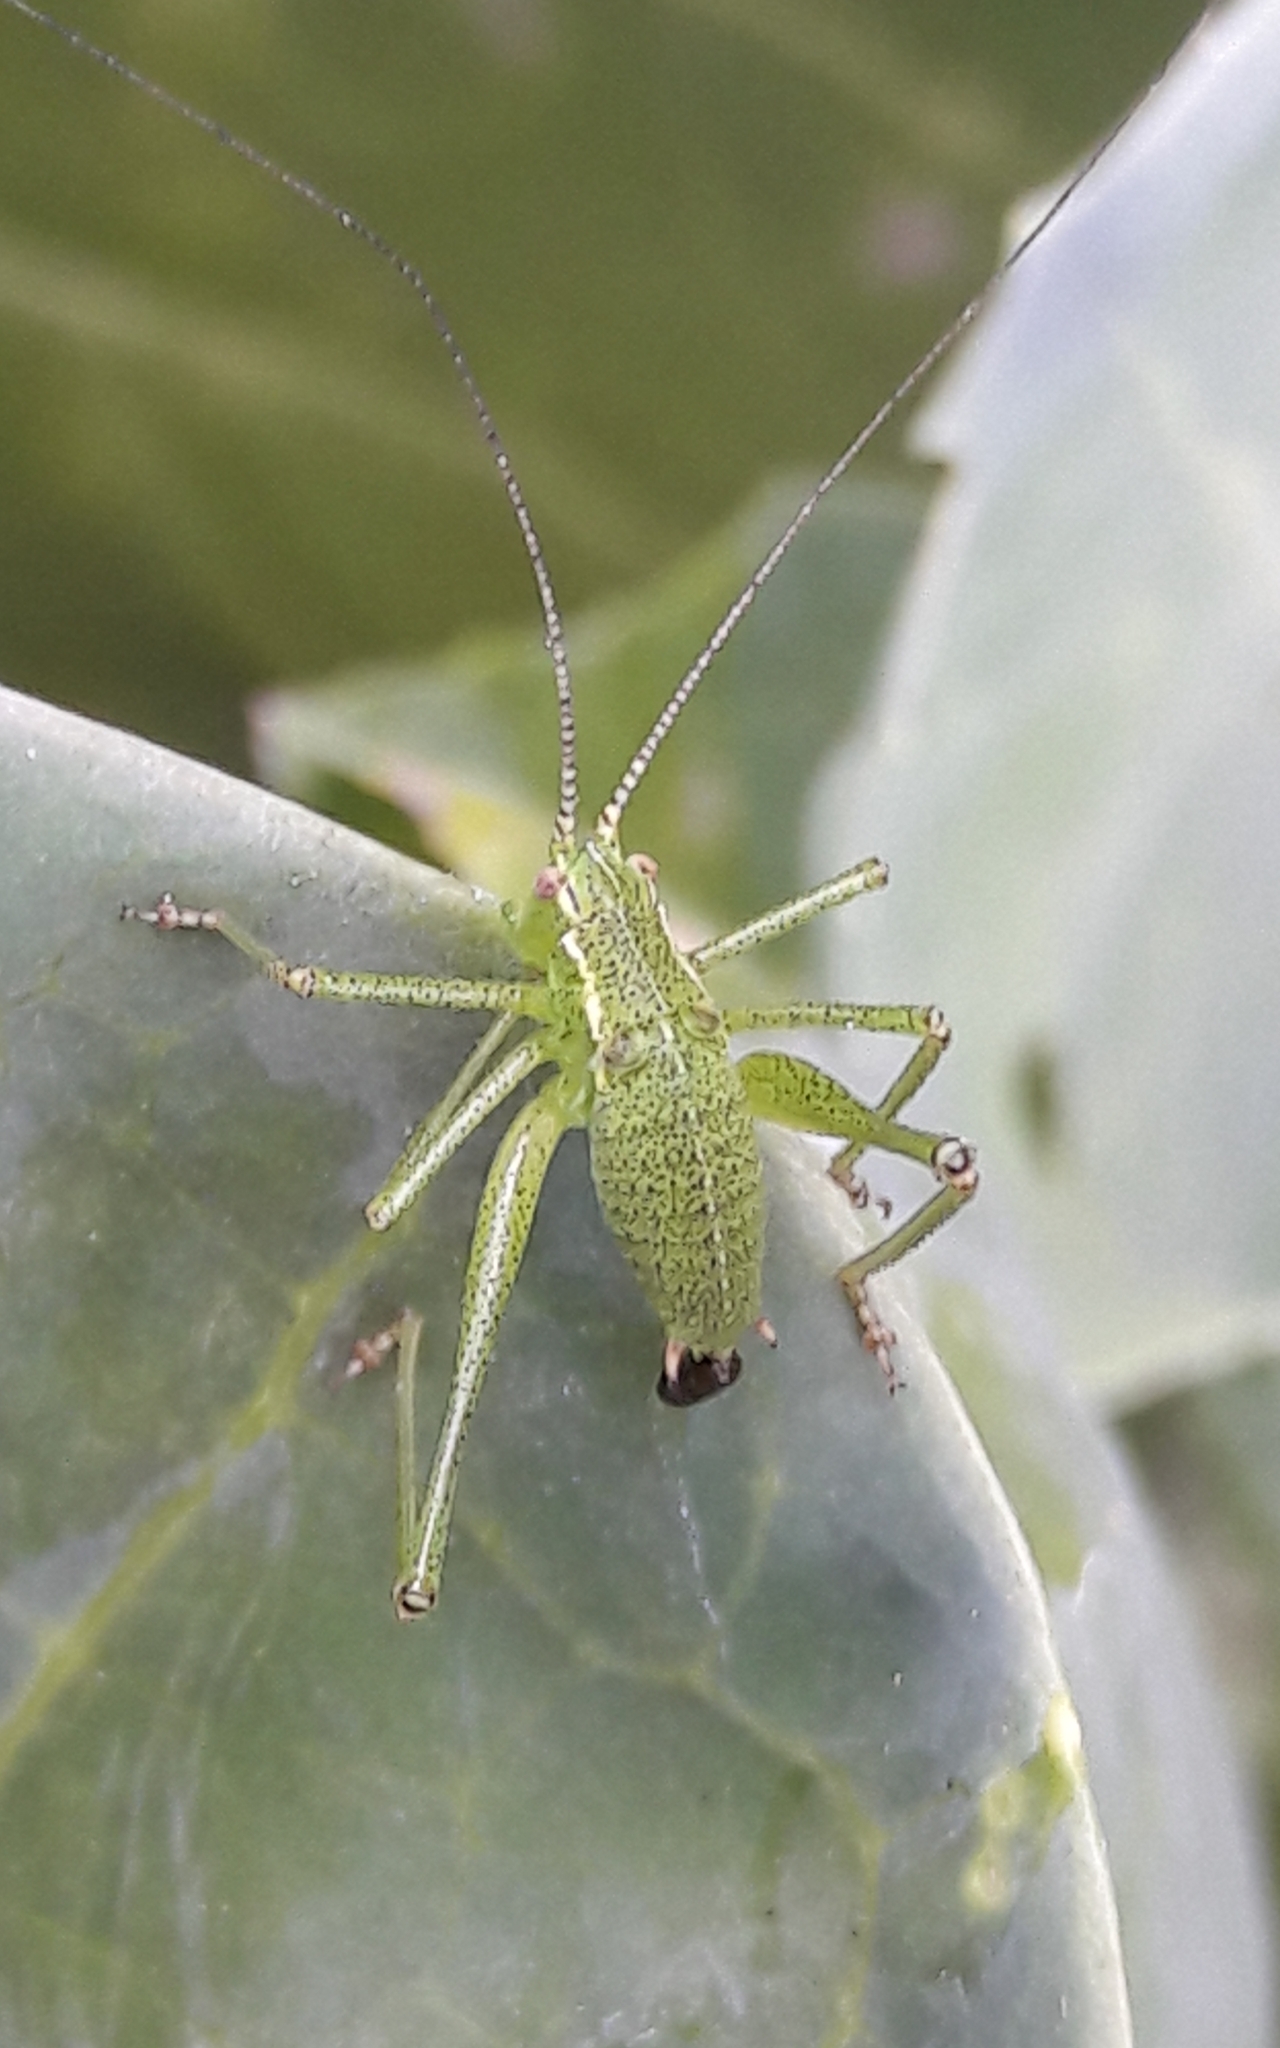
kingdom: Animalia
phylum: Arthropoda
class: Insecta
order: Orthoptera
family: Tettigoniidae
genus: Leptophyes
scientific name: Leptophyes punctatissima
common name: Speckled bush-cricket
